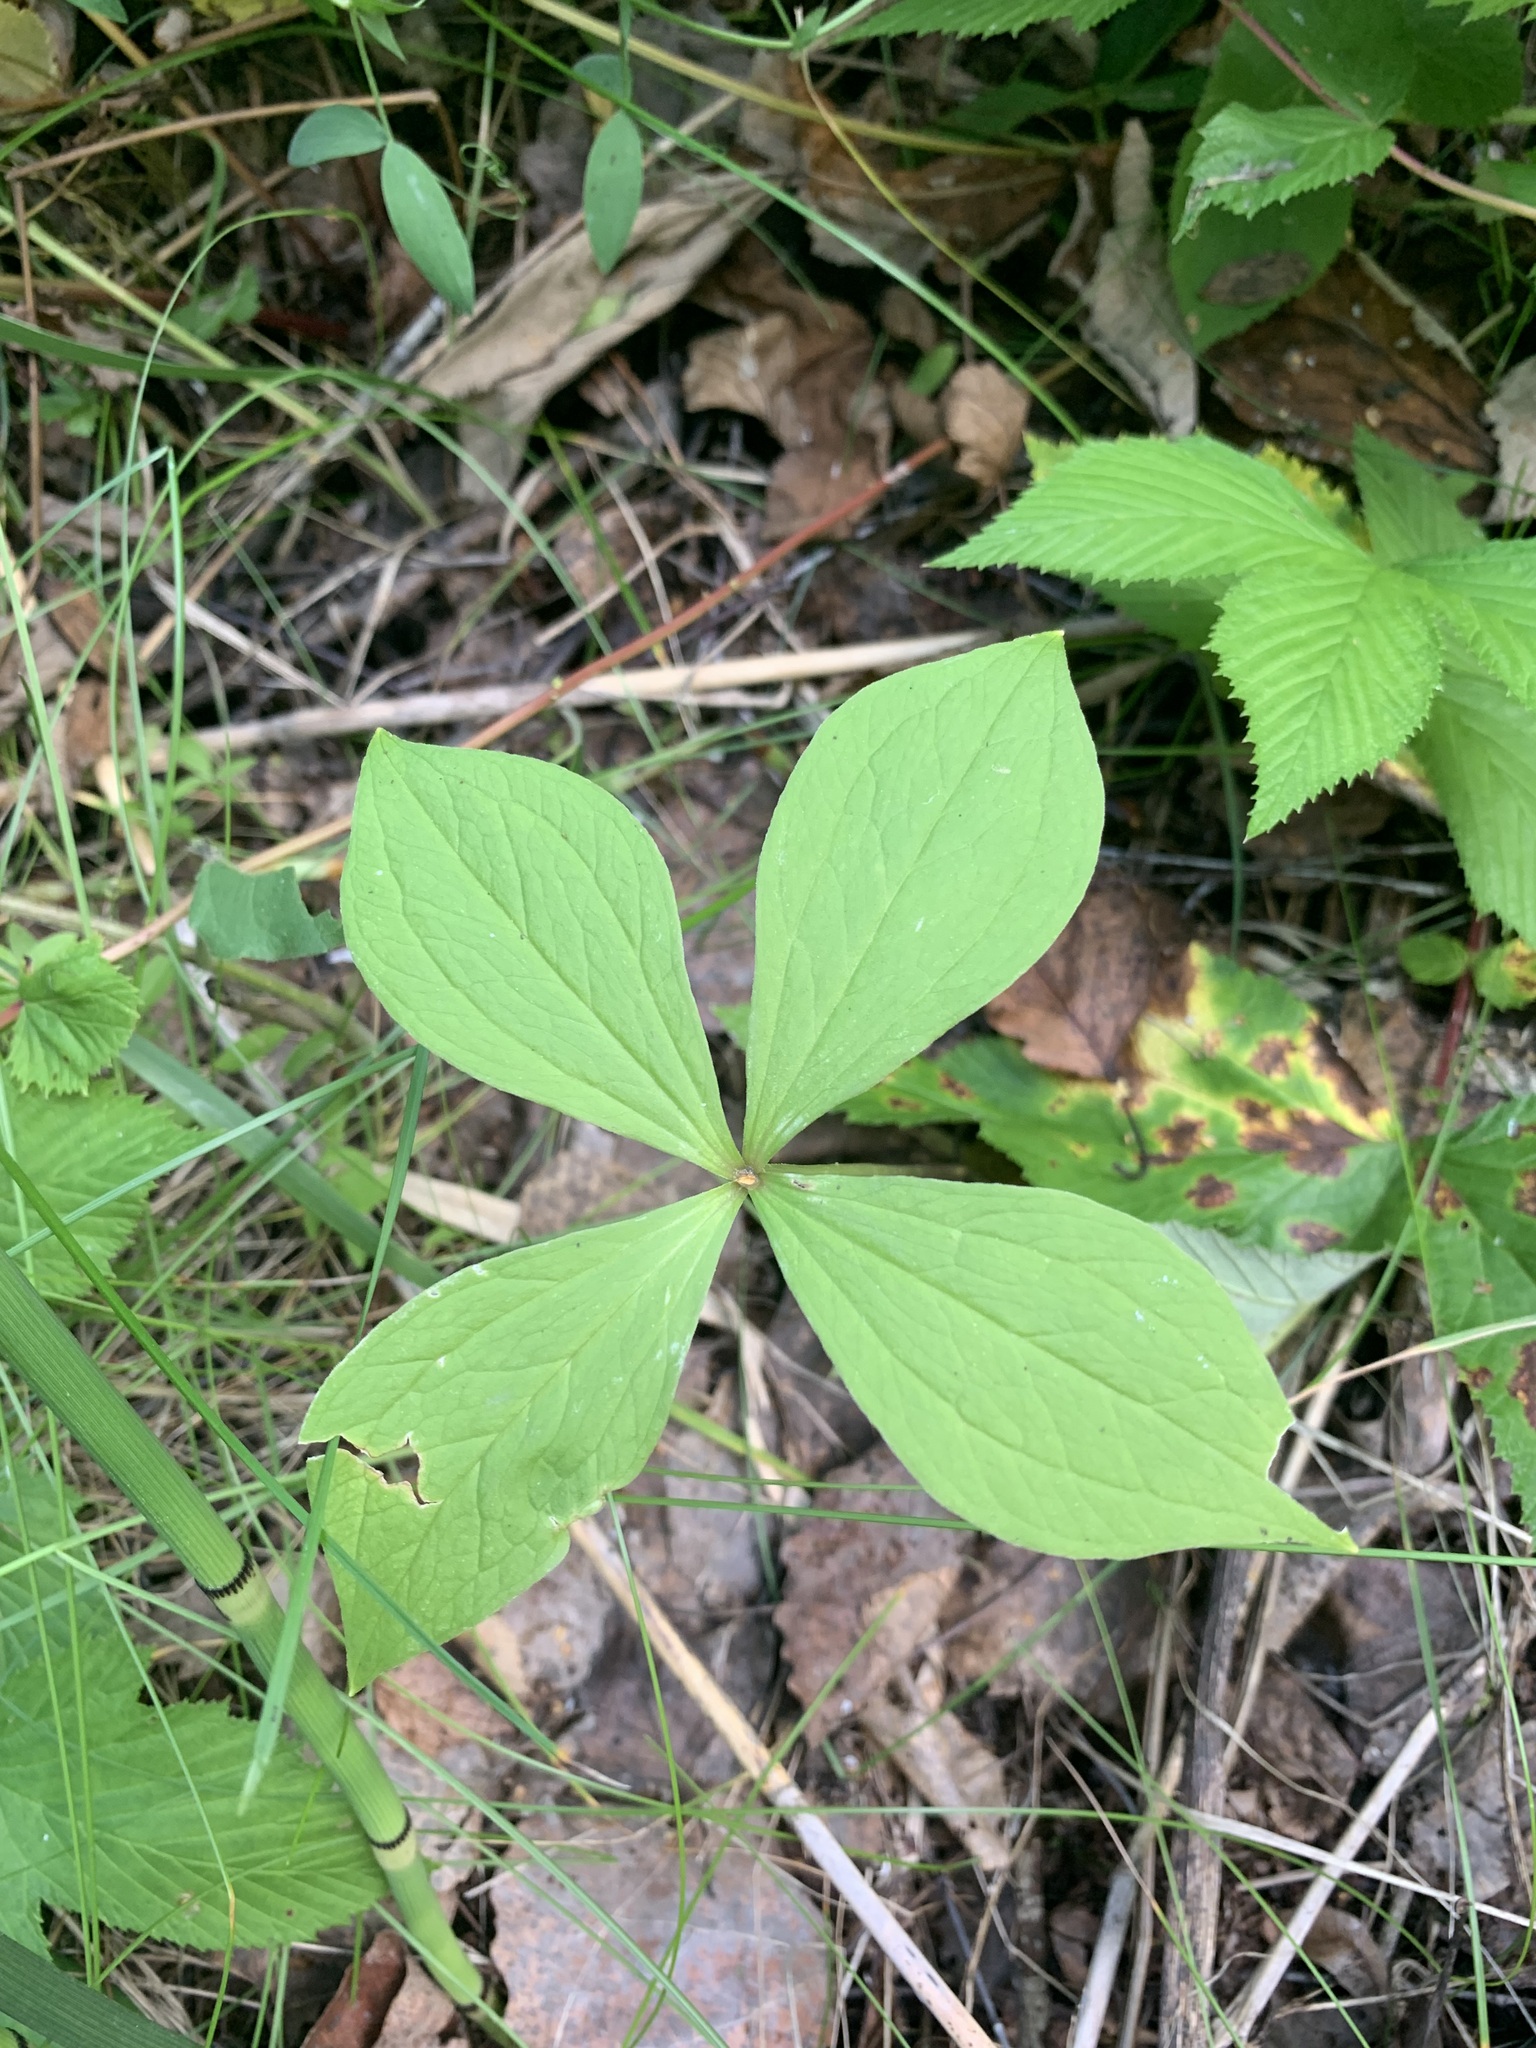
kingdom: Plantae
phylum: Tracheophyta
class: Liliopsida
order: Liliales
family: Melanthiaceae
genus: Paris
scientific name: Paris quadrifolia
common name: Herb-paris
